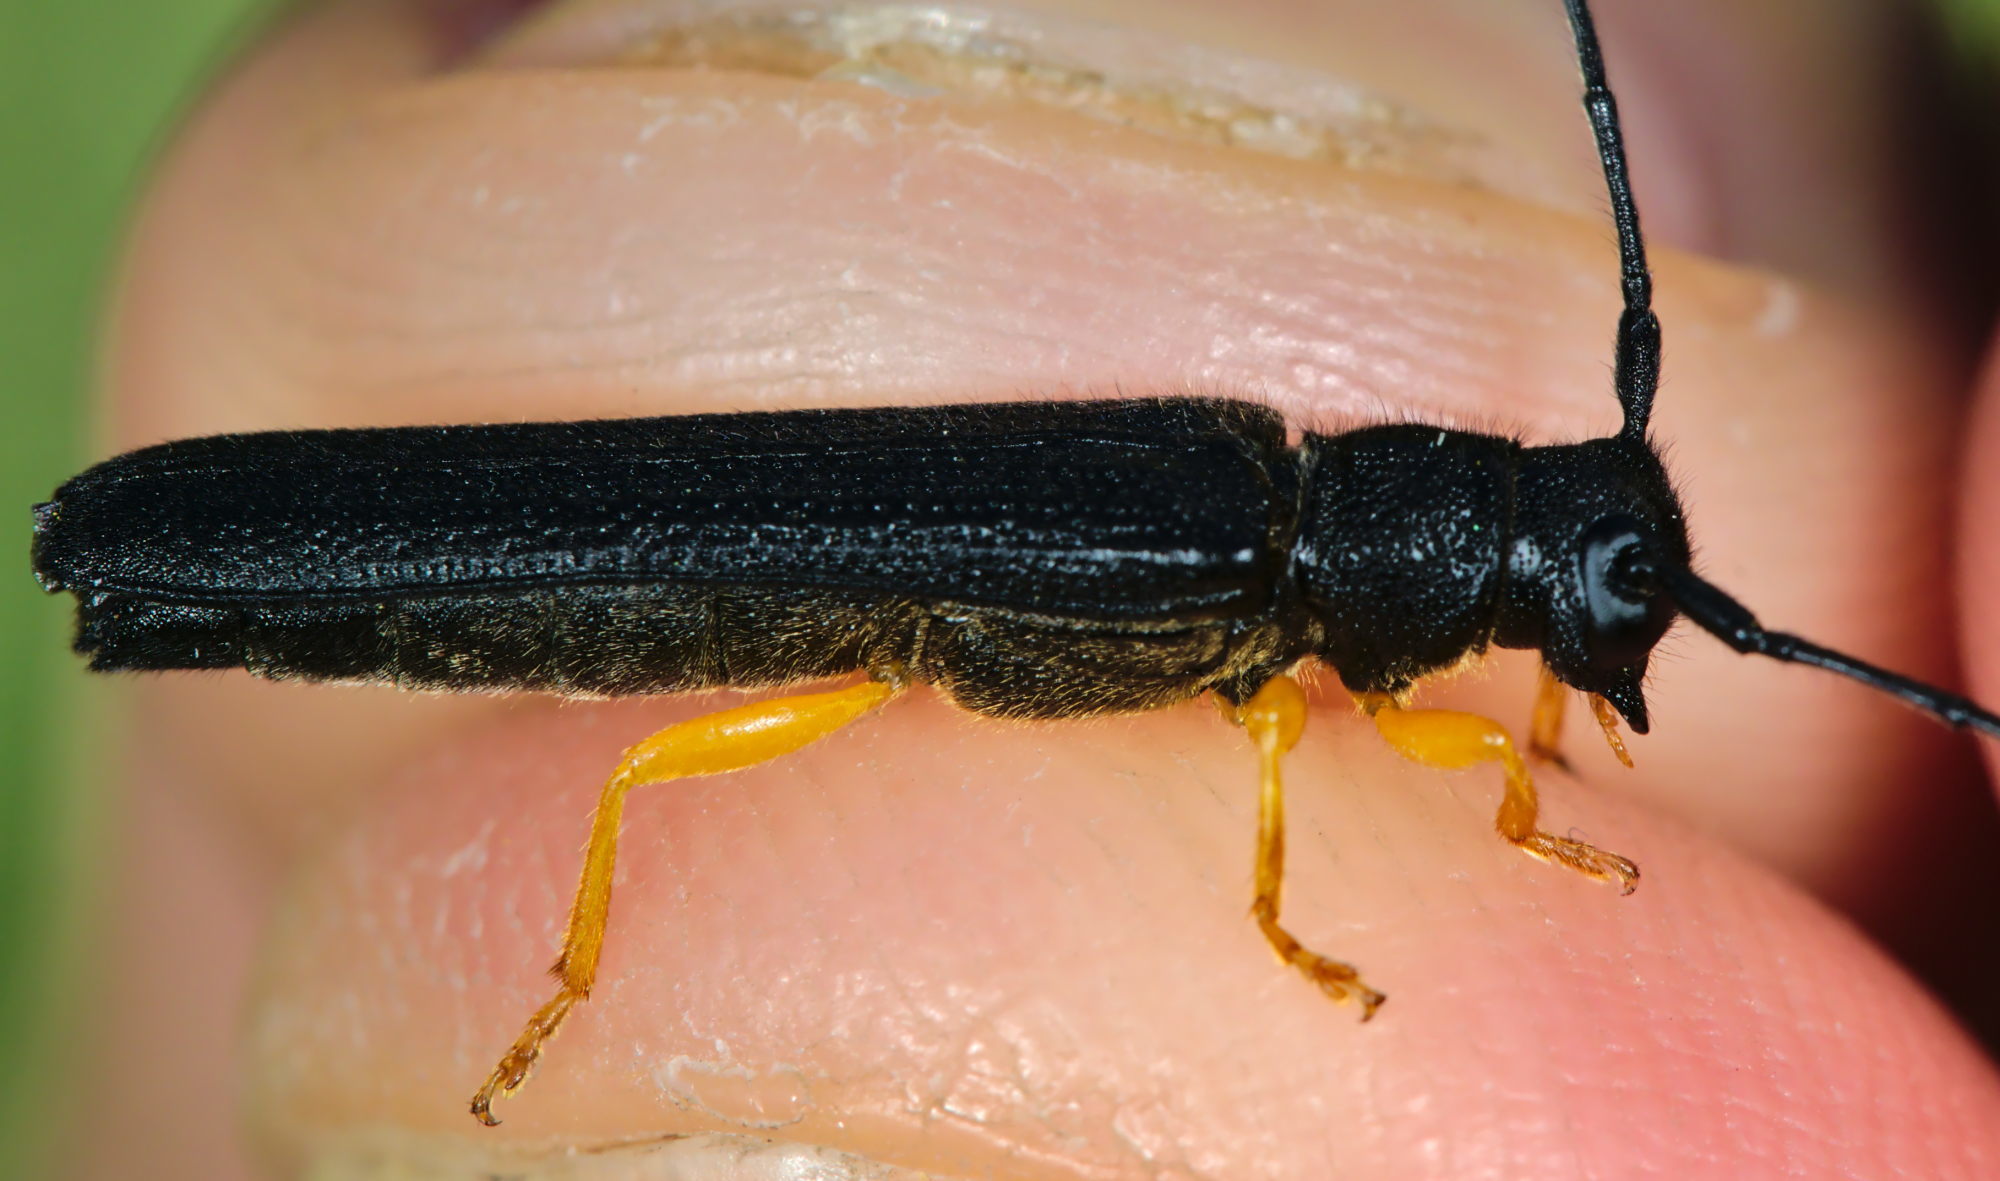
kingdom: Animalia
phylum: Arthropoda
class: Insecta
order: Coleoptera
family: Cerambycidae
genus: Oberea
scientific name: Oberea linearis
